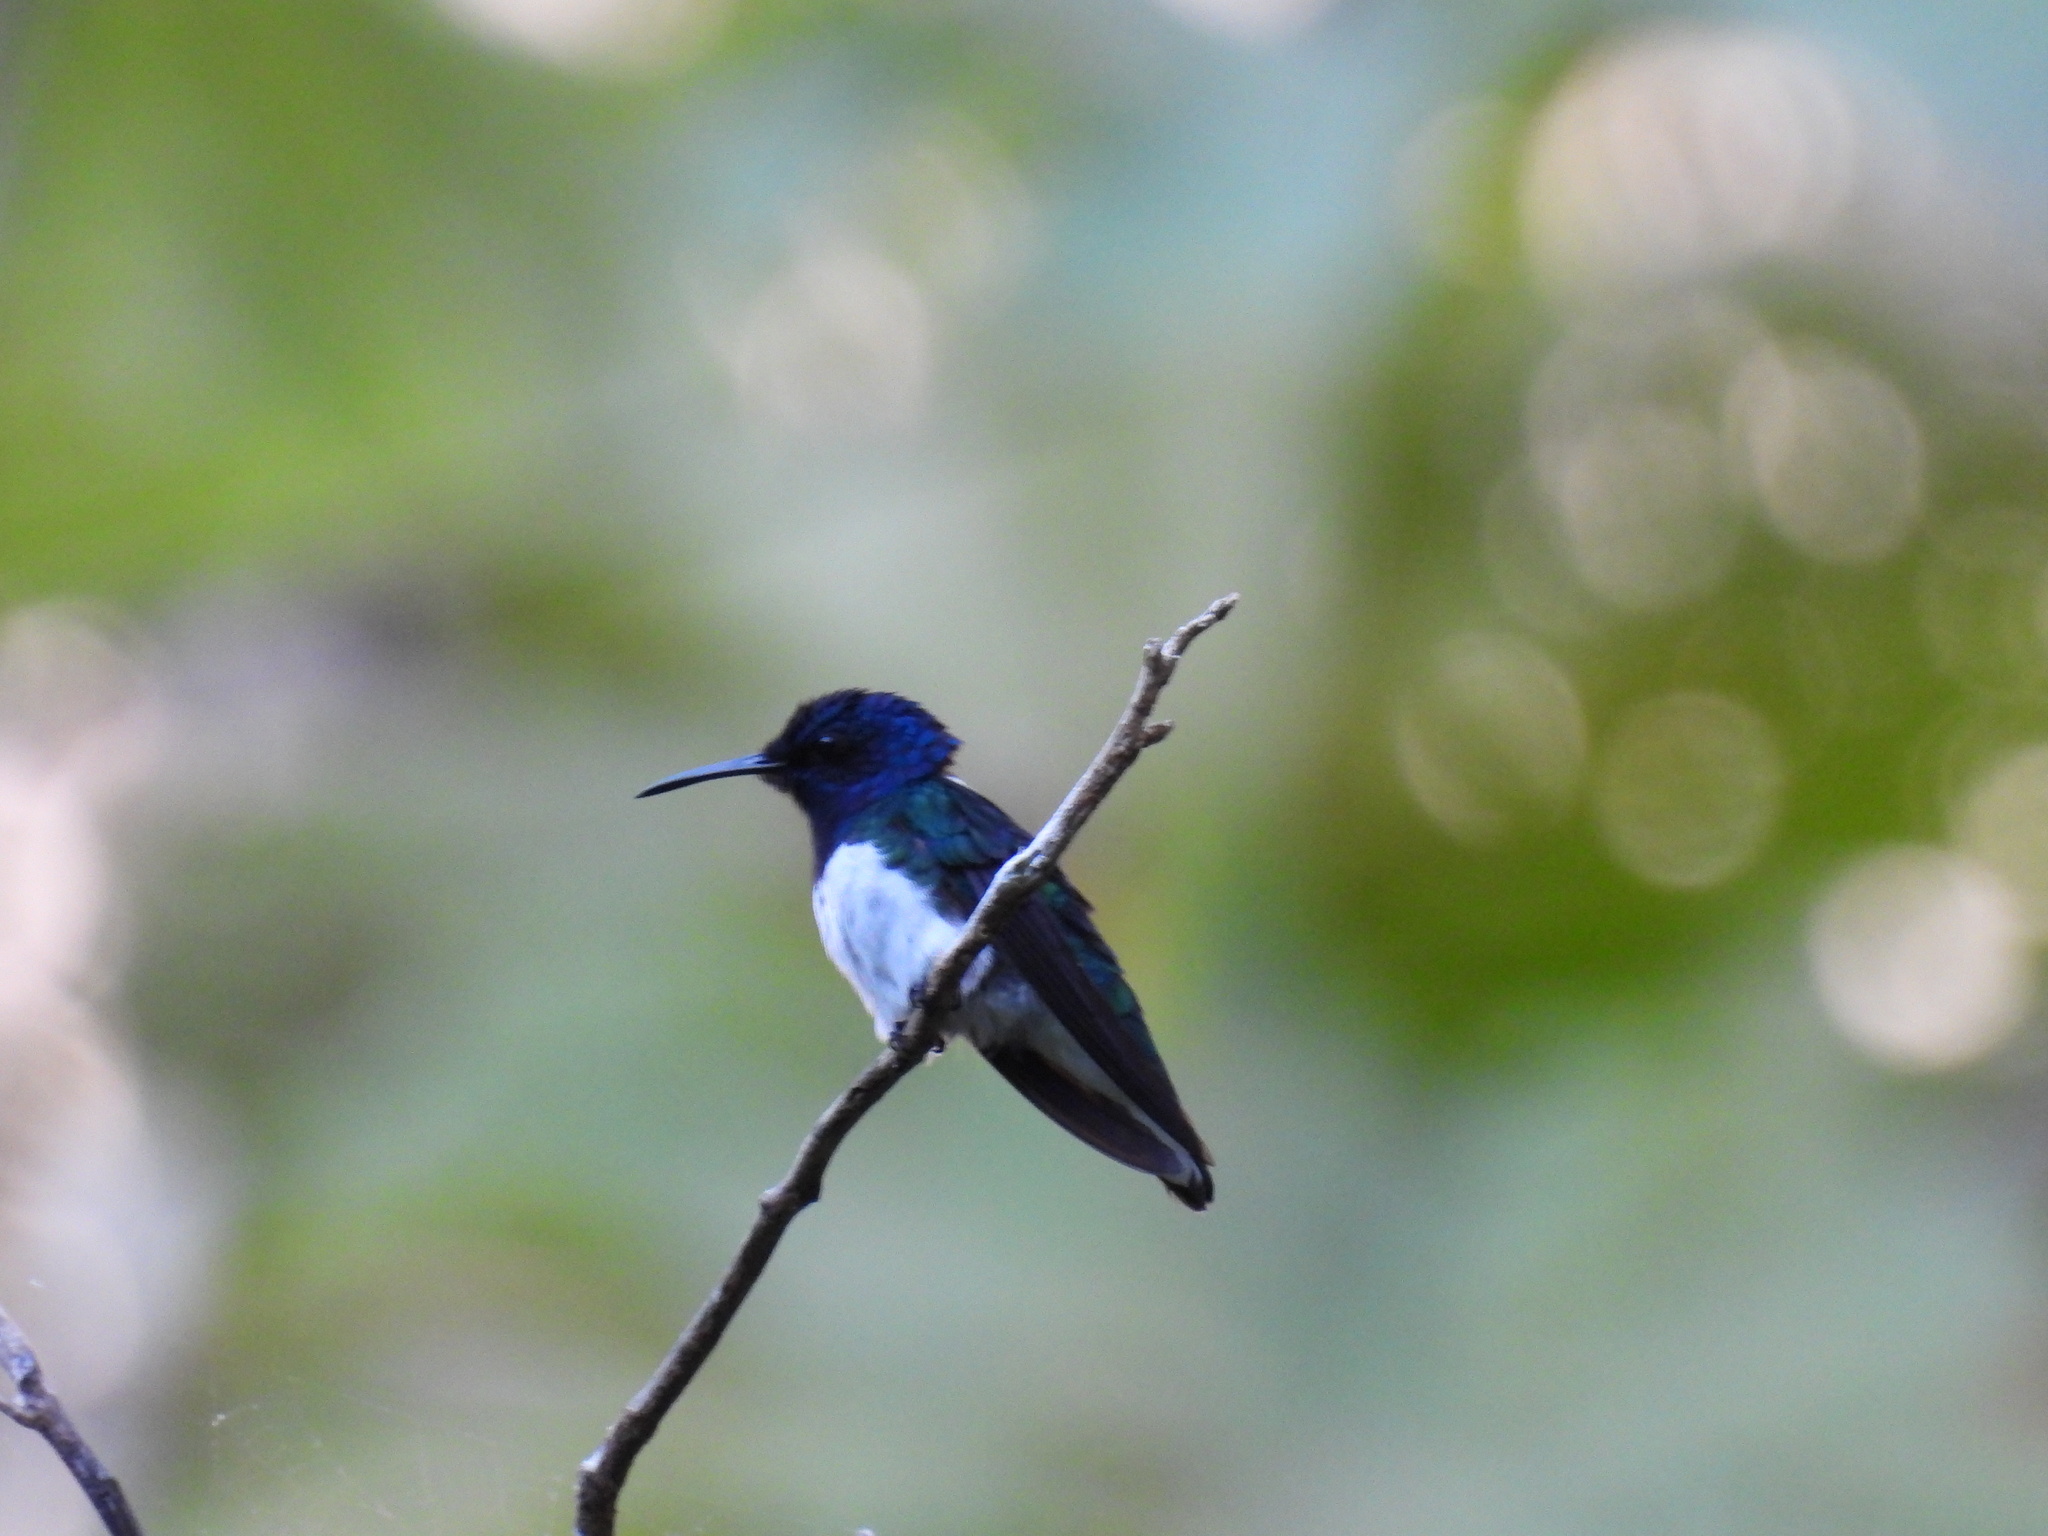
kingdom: Animalia
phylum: Chordata
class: Aves
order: Apodiformes
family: Trochilidae
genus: Florisuga
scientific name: Florisuga mellivora
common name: White-necked jacobin
